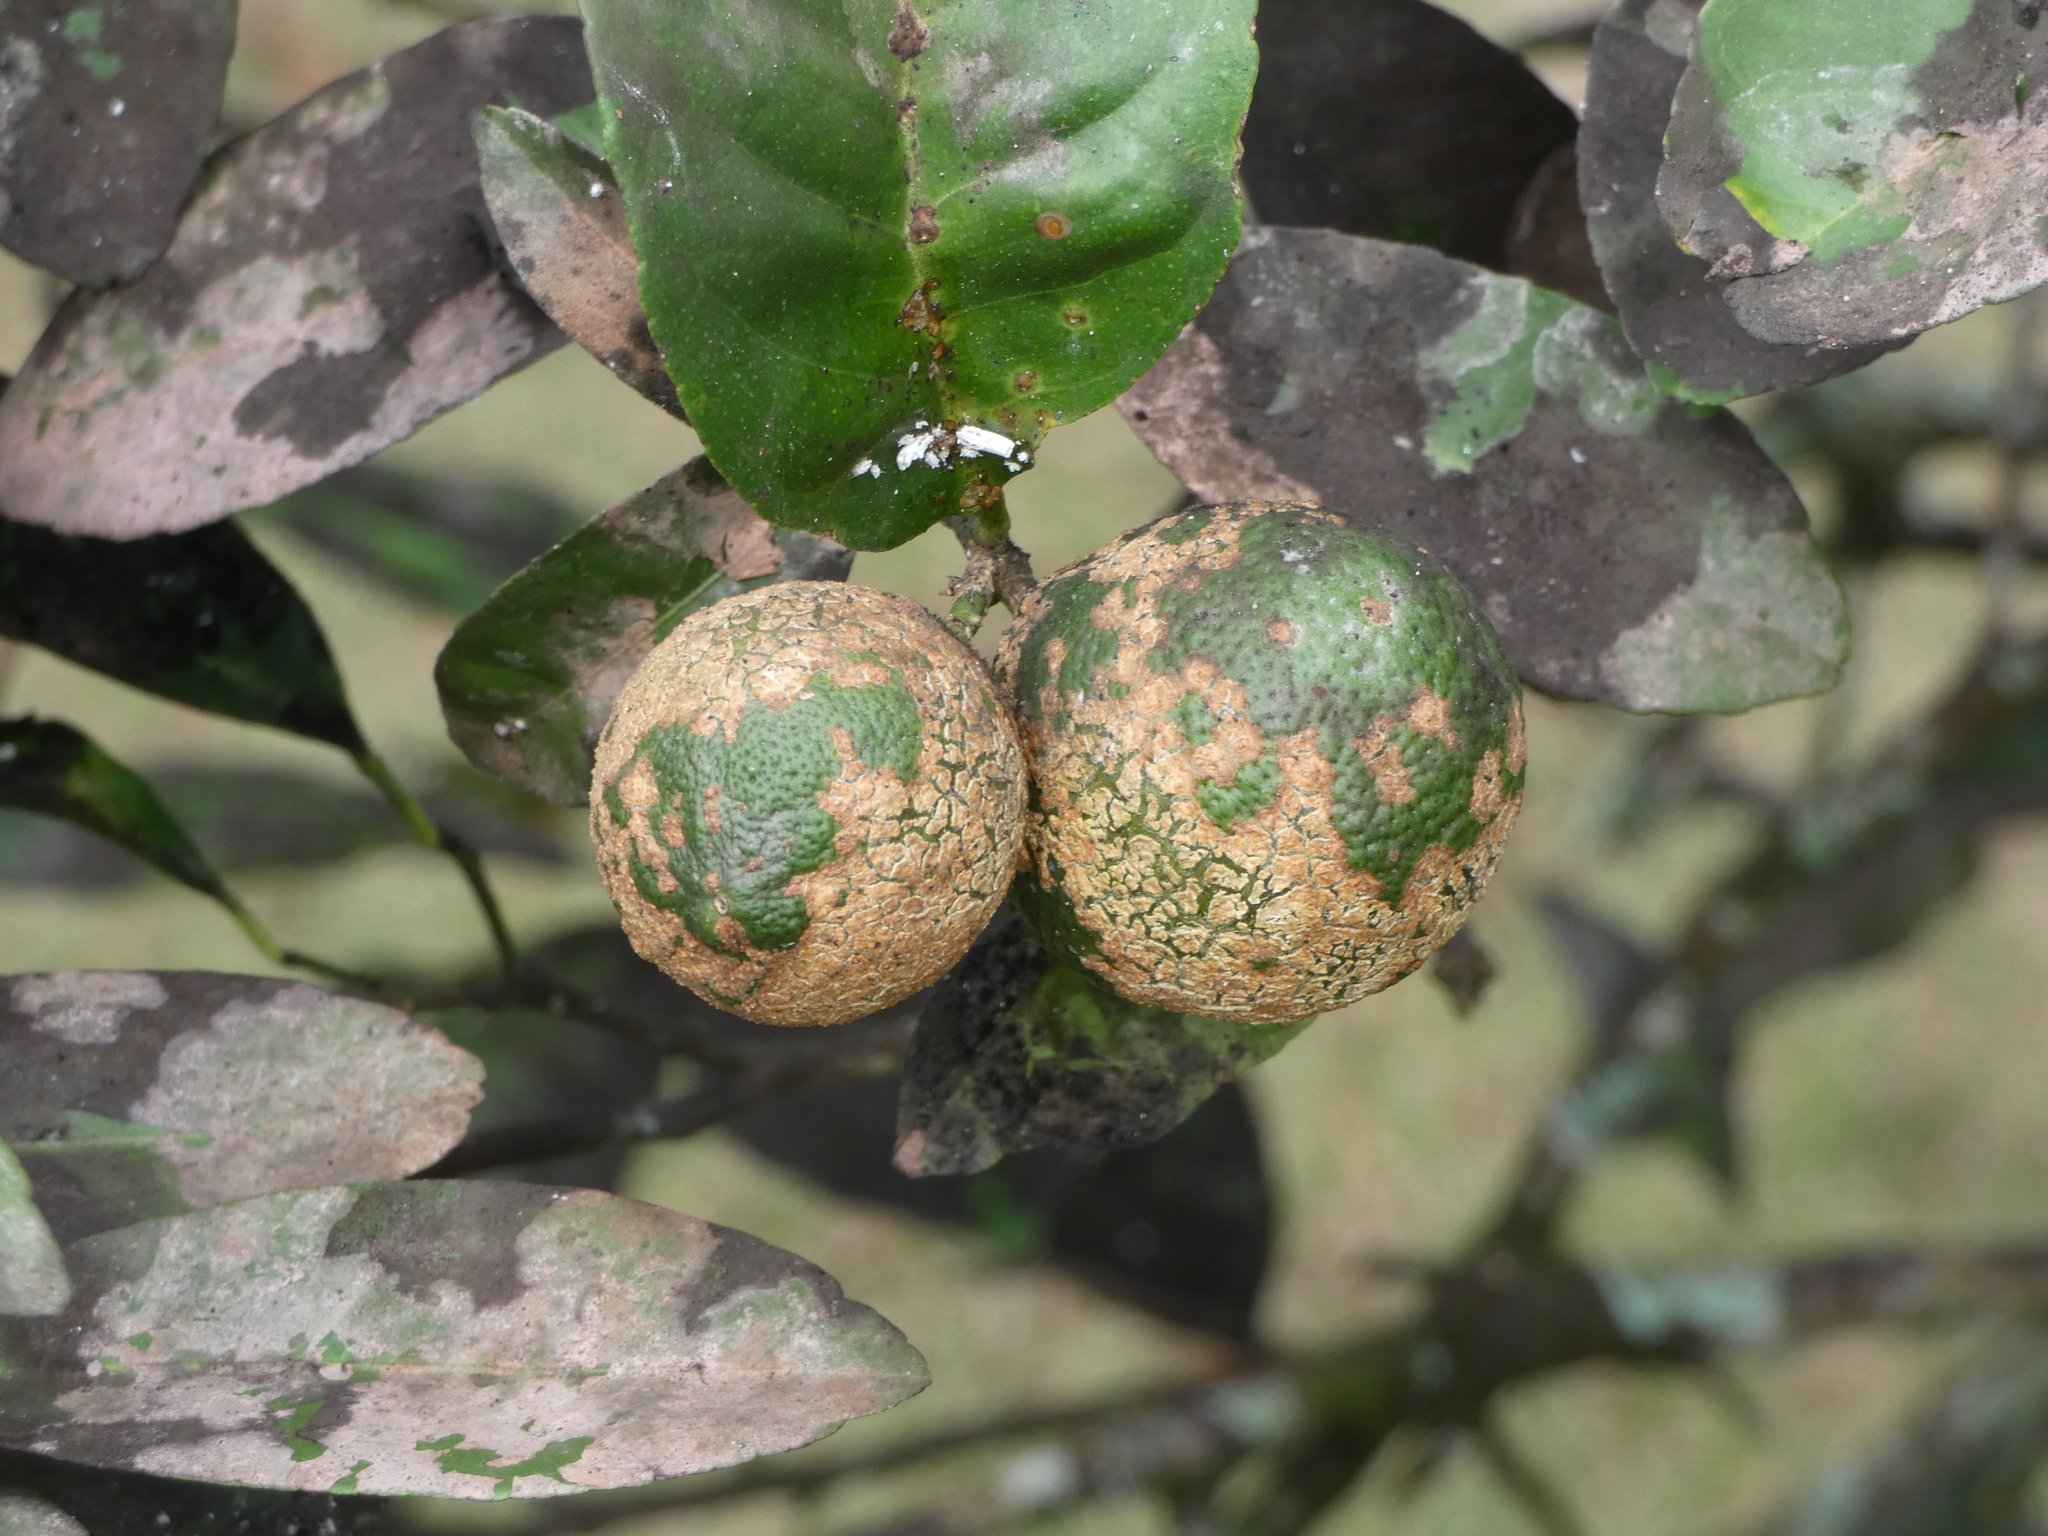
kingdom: Animalia
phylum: Arthropoda
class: Insecta
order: Hemiptera
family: Ortheziidae
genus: Praelongorthezia
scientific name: Praelongorthezia praelonga
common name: Citrus orthezia
